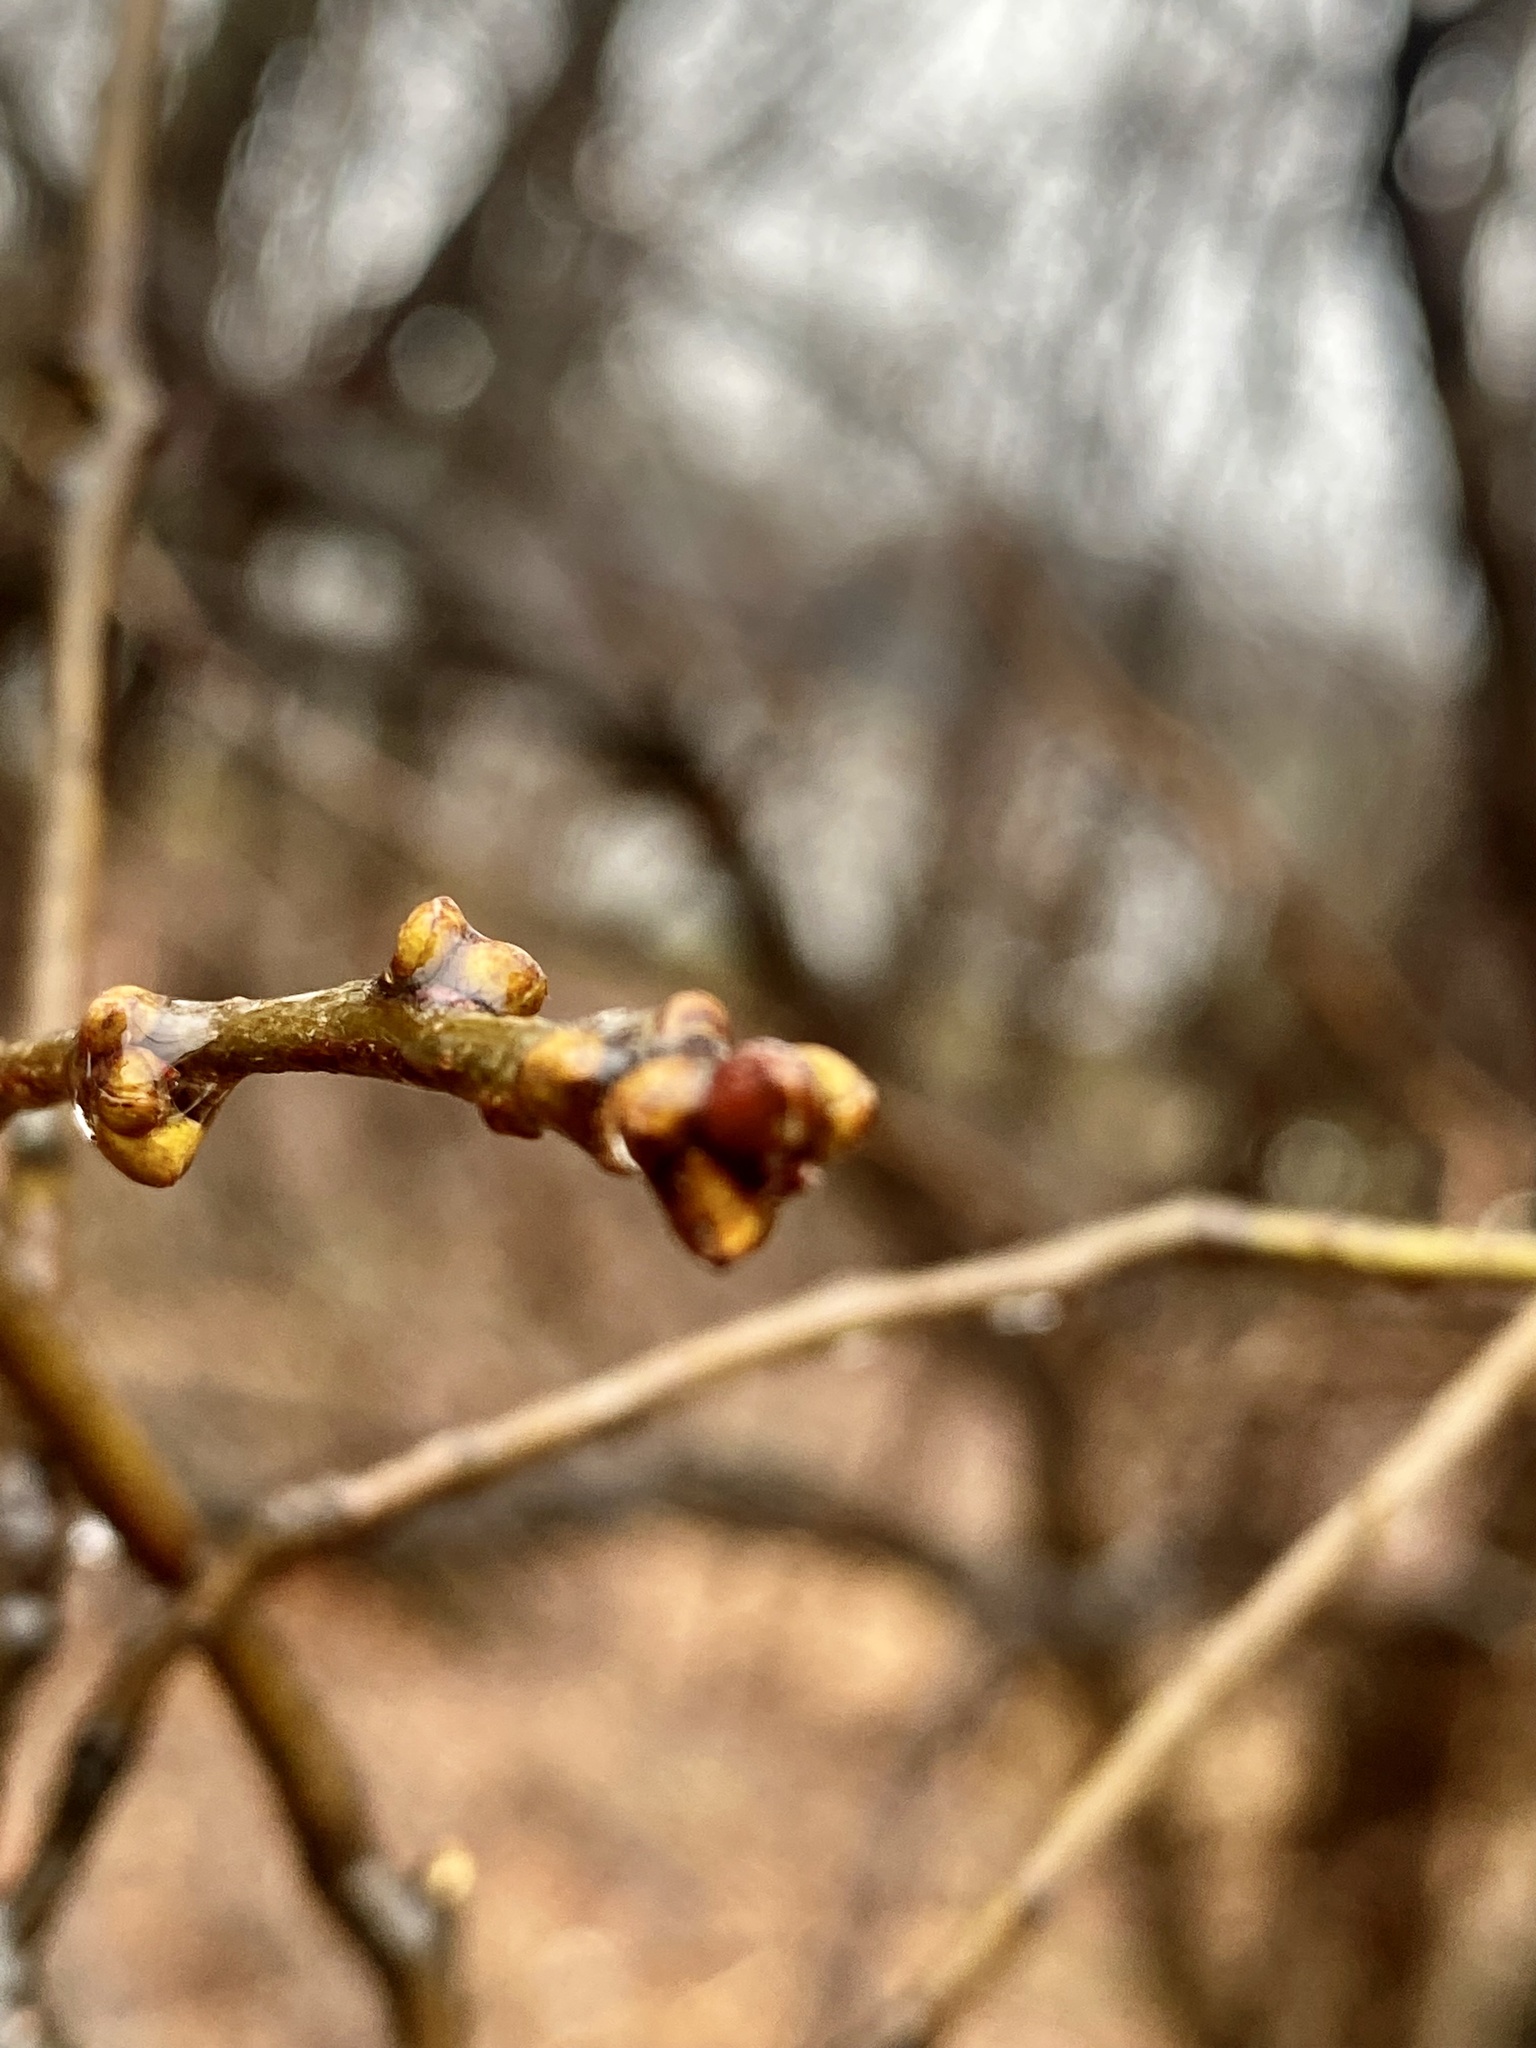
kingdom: Plantae
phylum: Tracheophyta
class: Magnoliopsida
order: Laurales
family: Lauraceae
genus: Lindera
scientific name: Lindera benzoin
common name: Spicebush
